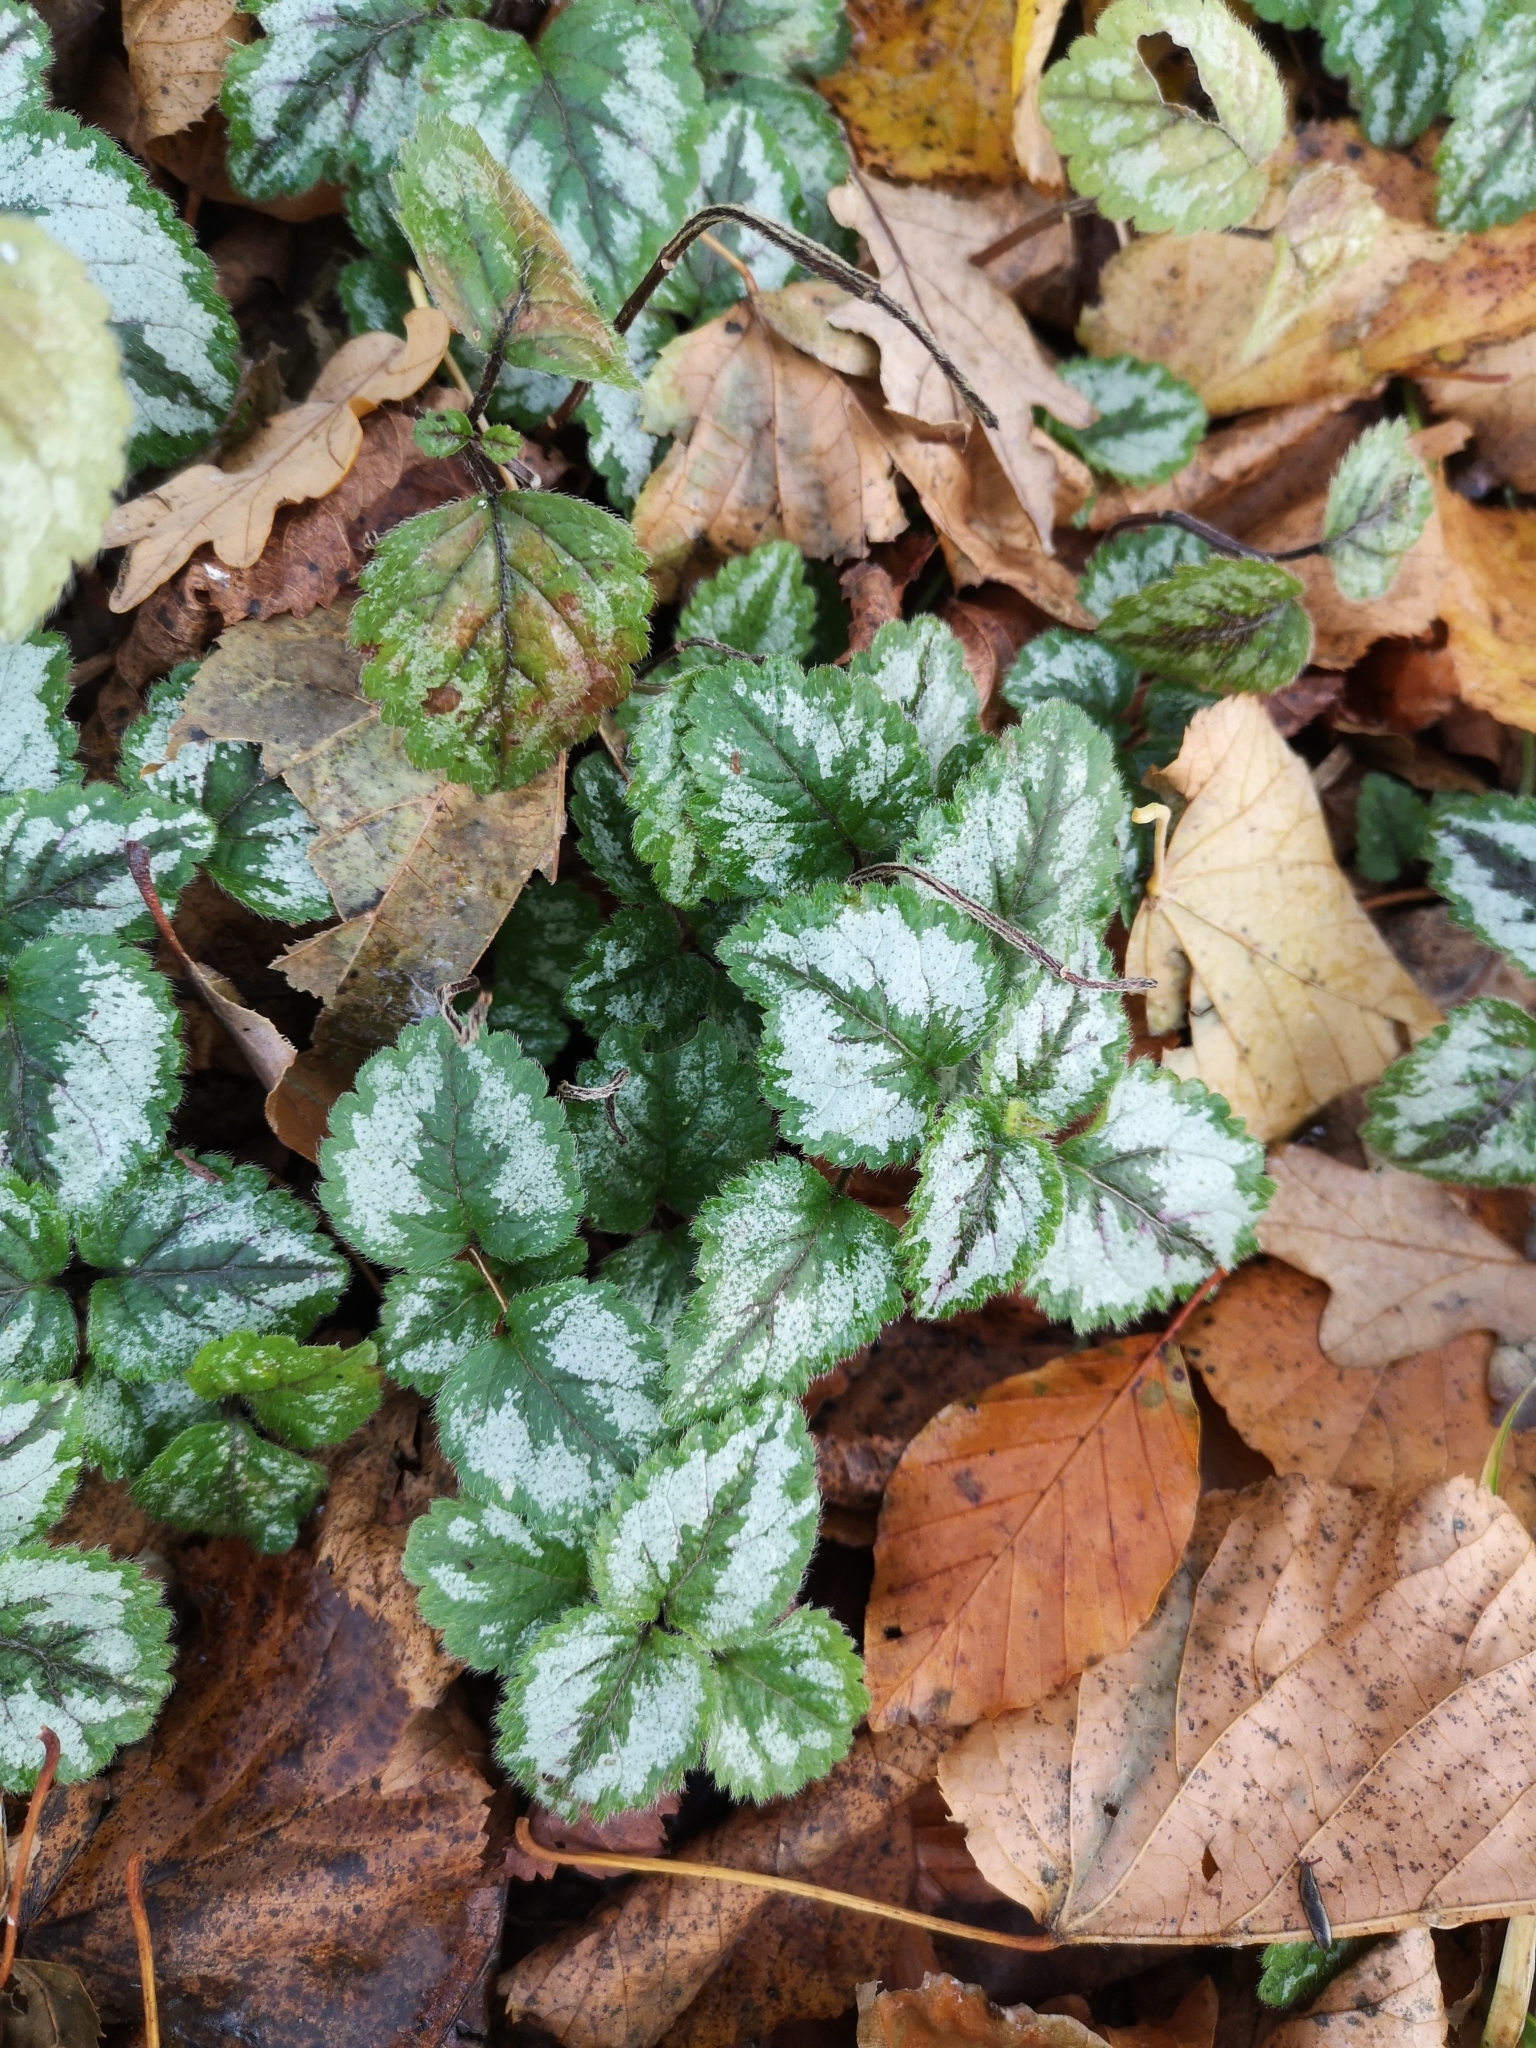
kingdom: Plantae
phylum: Tracheophyta
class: Magnoliopsida
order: Lamiales
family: Lamiaceae
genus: Lamium
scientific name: Lamium galeobdolon
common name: Yellow archangel
